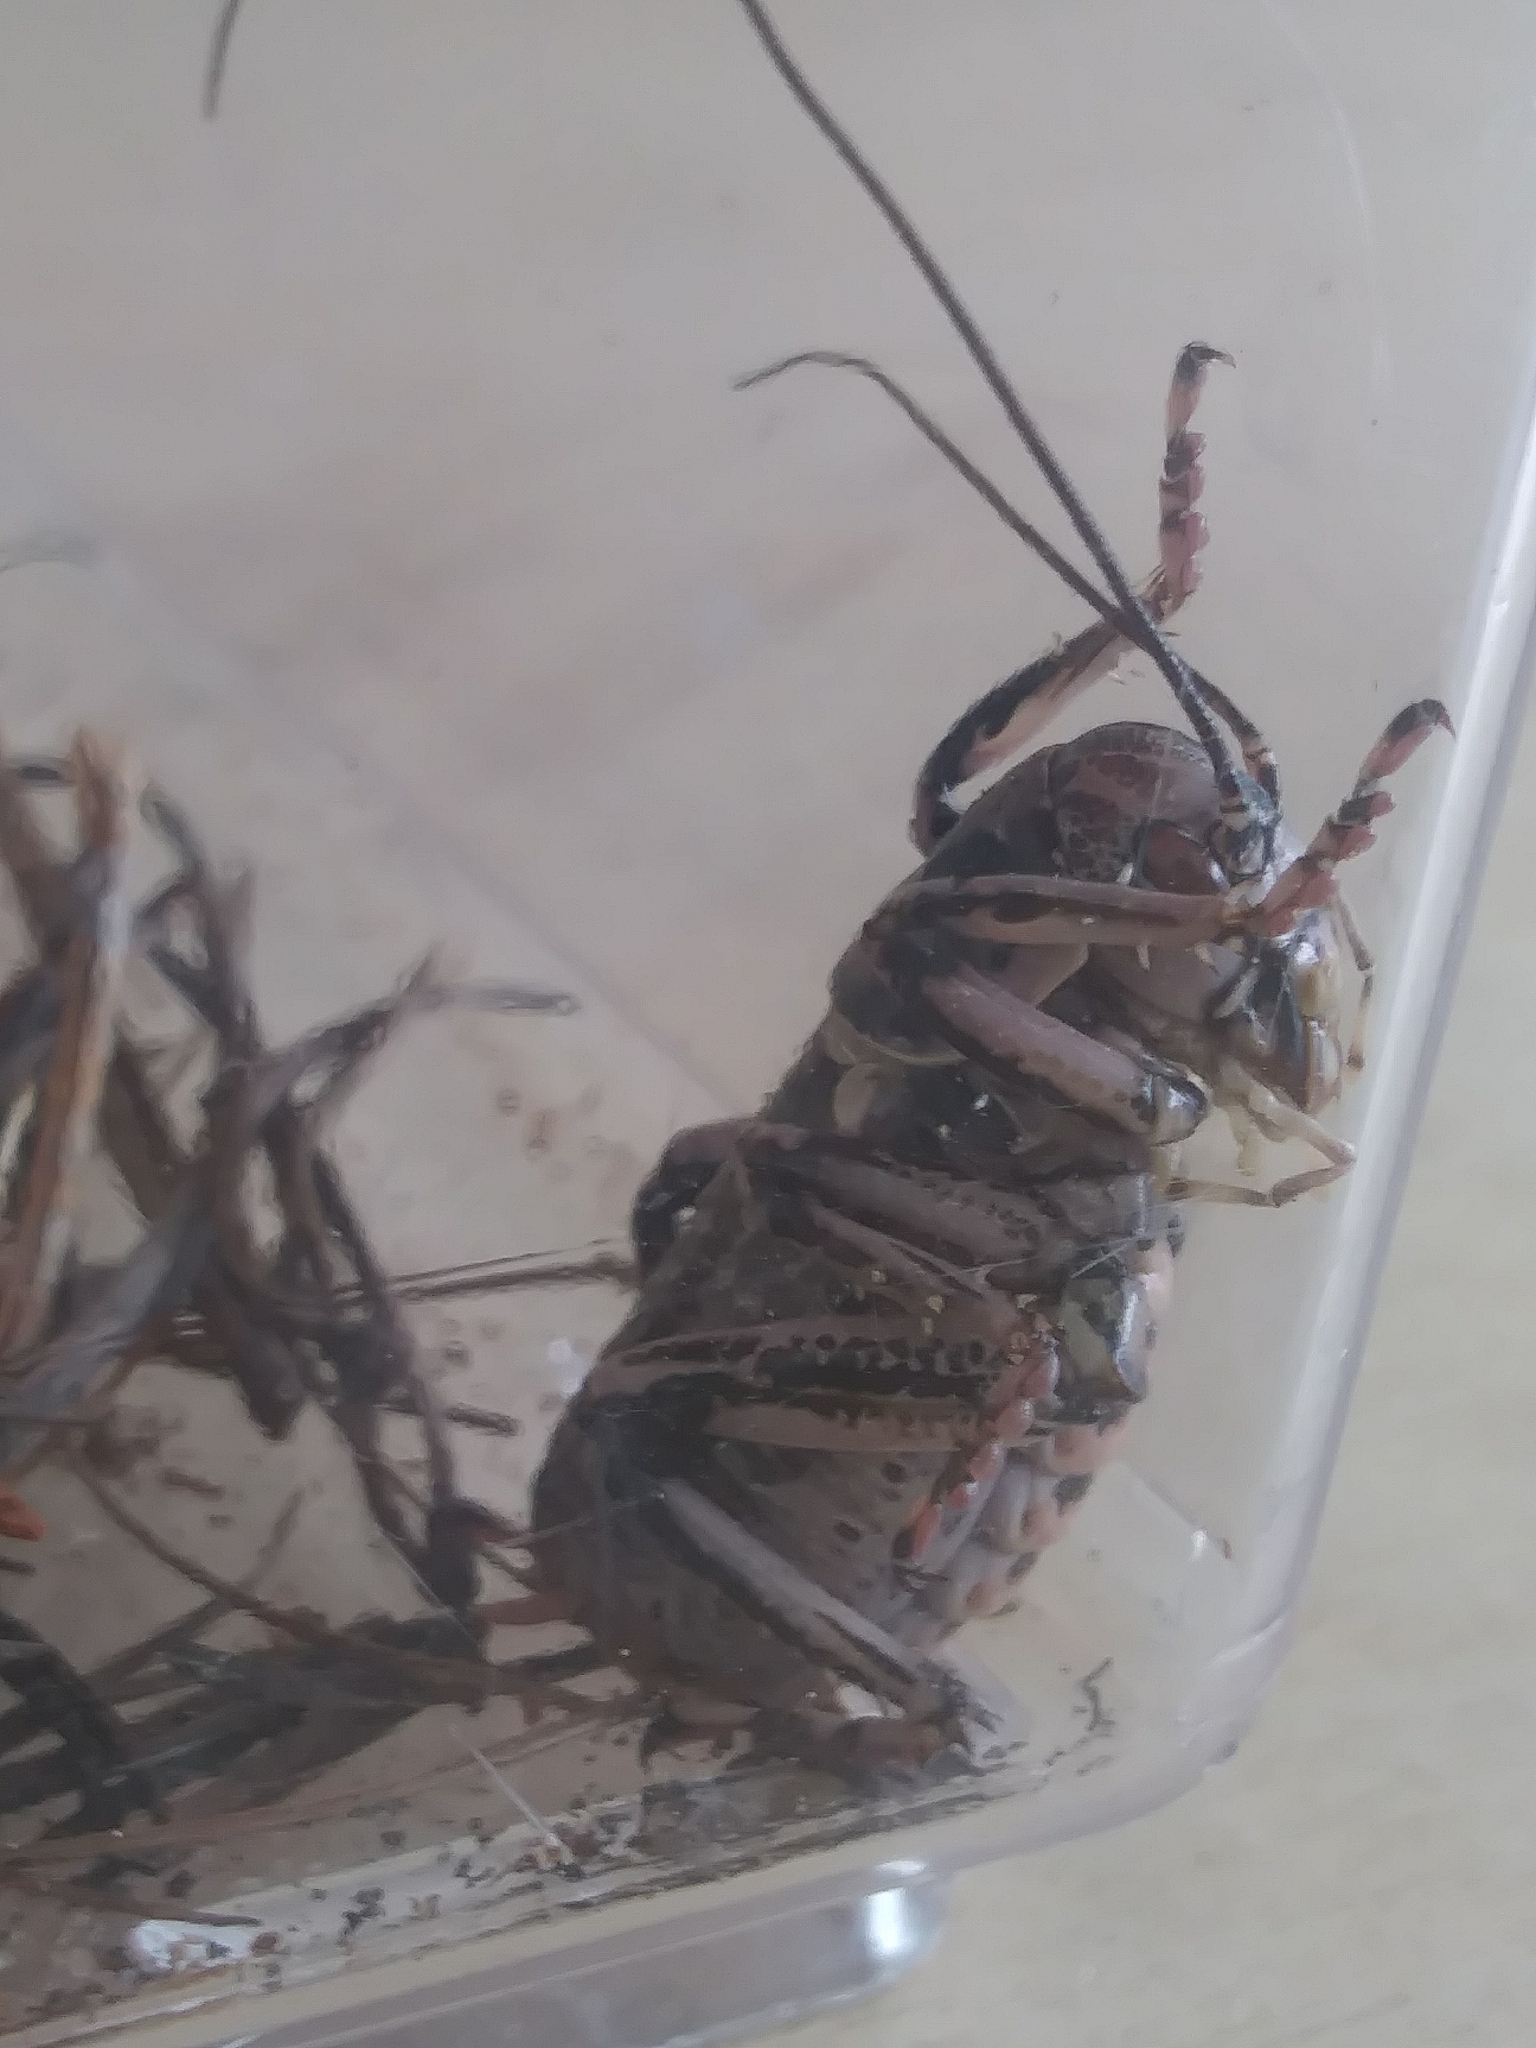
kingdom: Animalia
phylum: Arthropoda
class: Insecta
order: Orthoptera
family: Prophalangopsidae
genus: Cyphoderris
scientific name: Cyphoderris monstrosa
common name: Great grig
